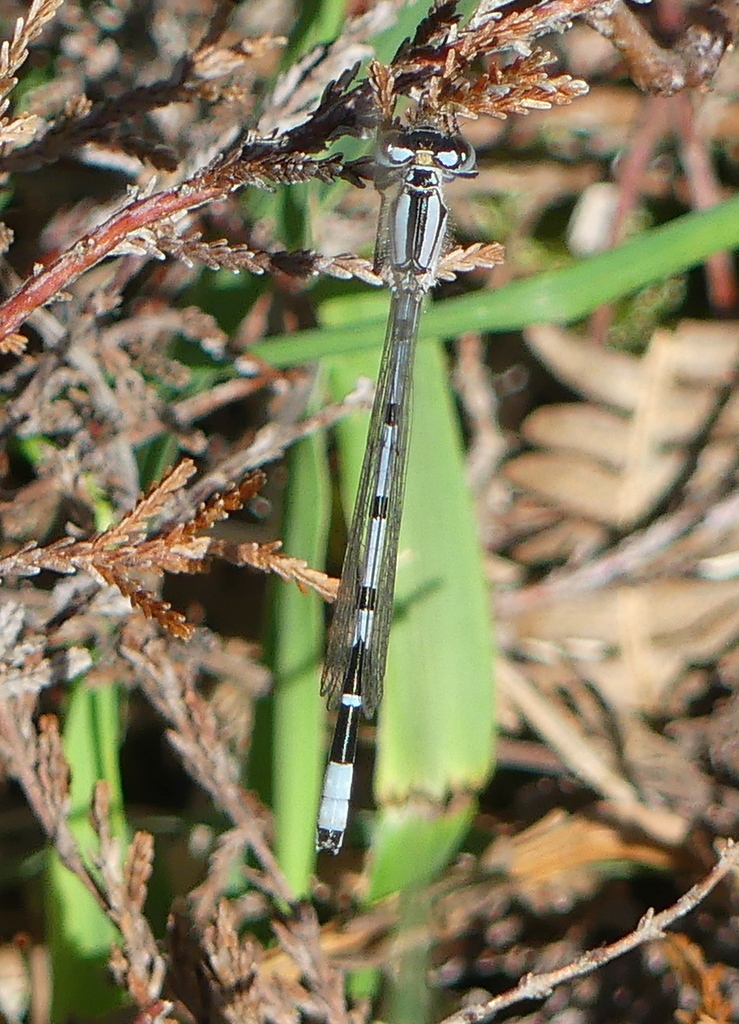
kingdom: Animalia
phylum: Arthropoda
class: Insecta
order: Odonata
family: Coenagrionidae
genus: Enallagma
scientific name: Enallagma cyathigerum
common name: Common blue damselfly
